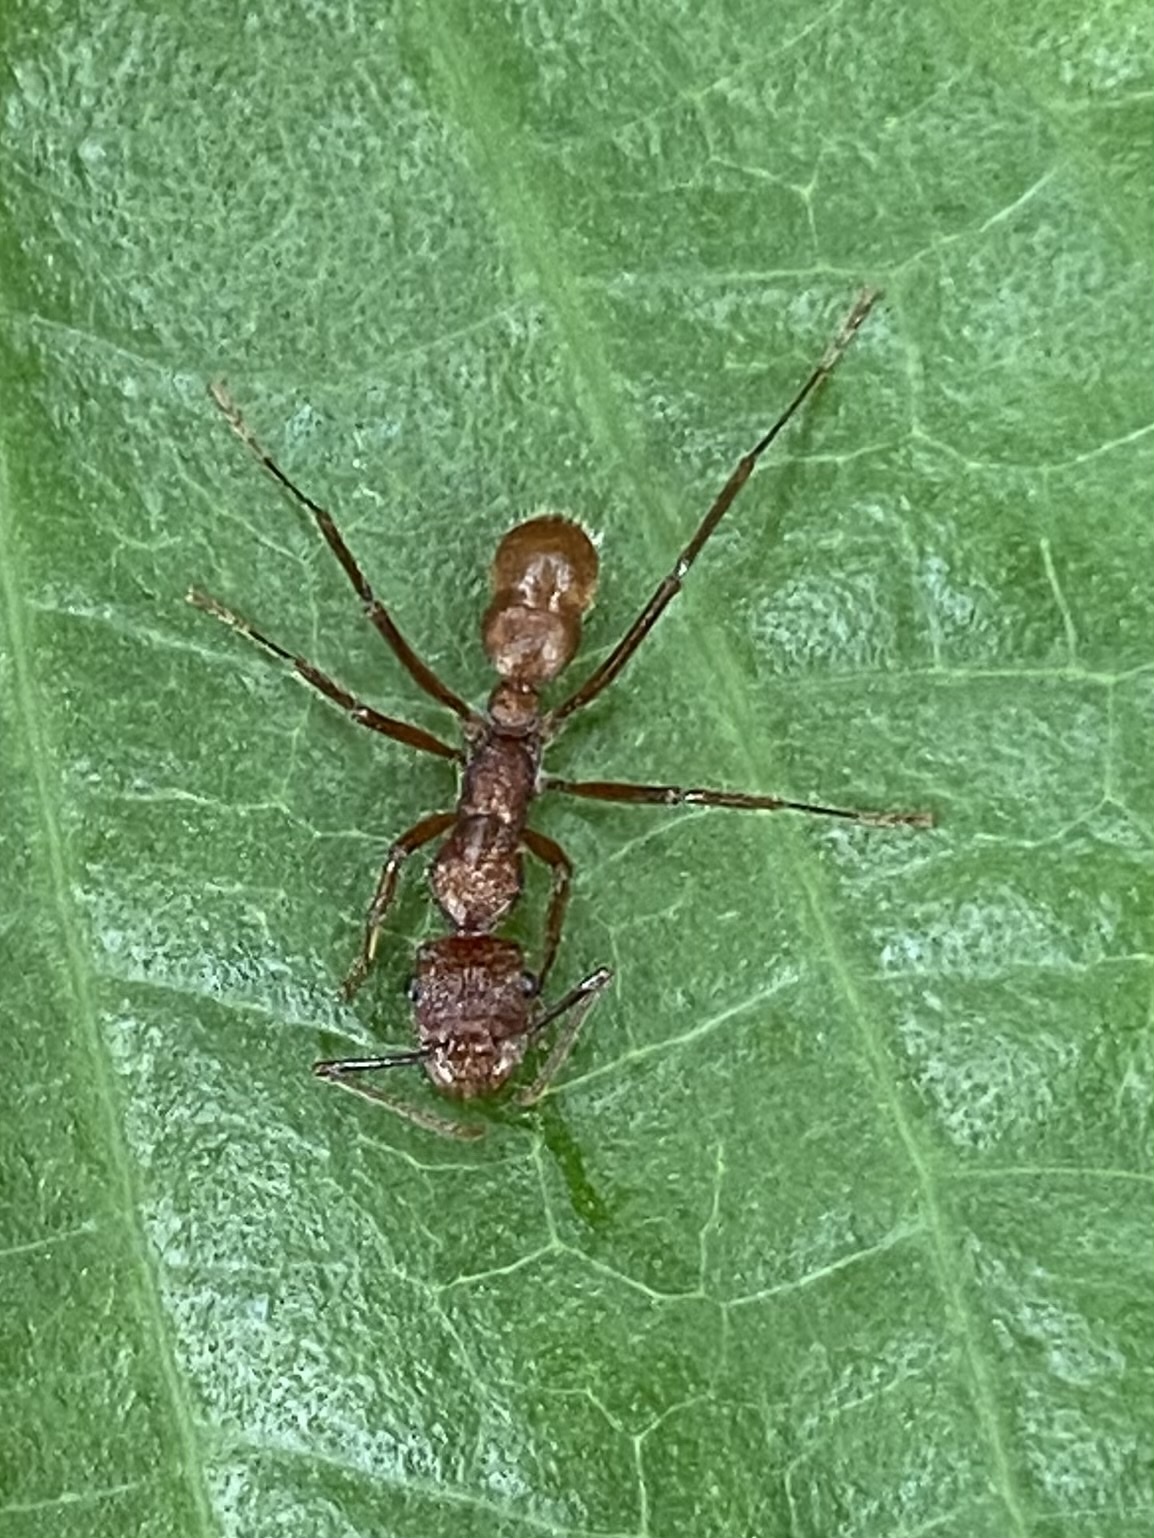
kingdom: Animalia
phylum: Arthropoda
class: Insecta
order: Hymenoptera
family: Formicidae
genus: Ectatomma
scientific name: Ectatomma tuberculatum
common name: Ant
